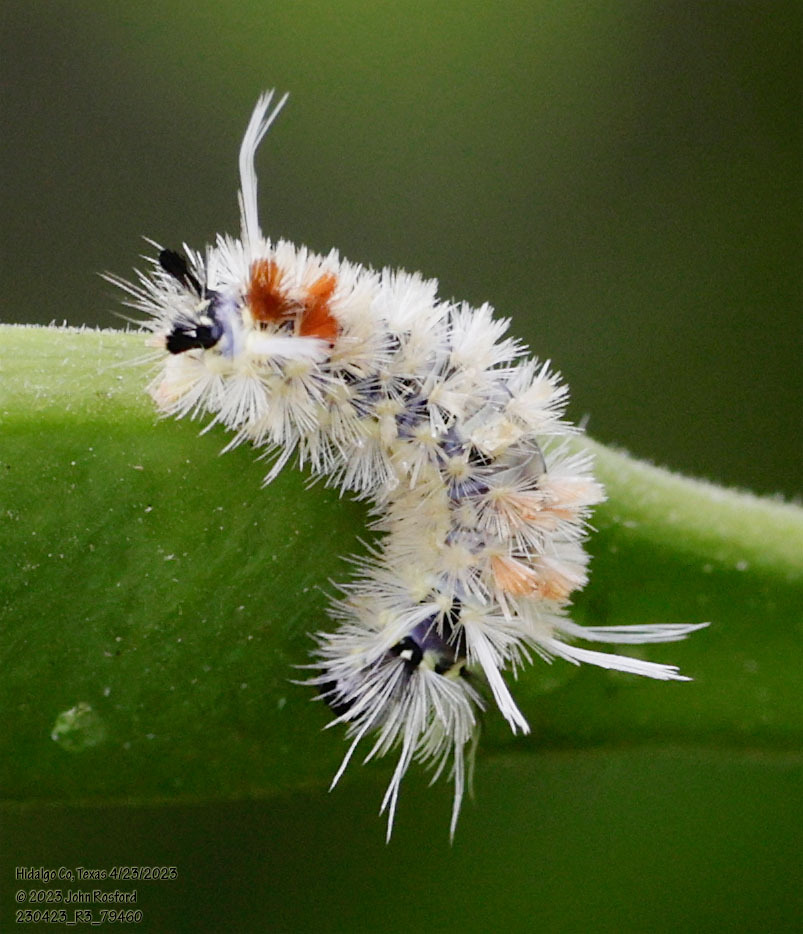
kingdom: Animalia
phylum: Arthropoda
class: Insecta
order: Lepidoptera
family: Erebidae
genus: Lophocampa
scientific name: Lophocampa annulosa
